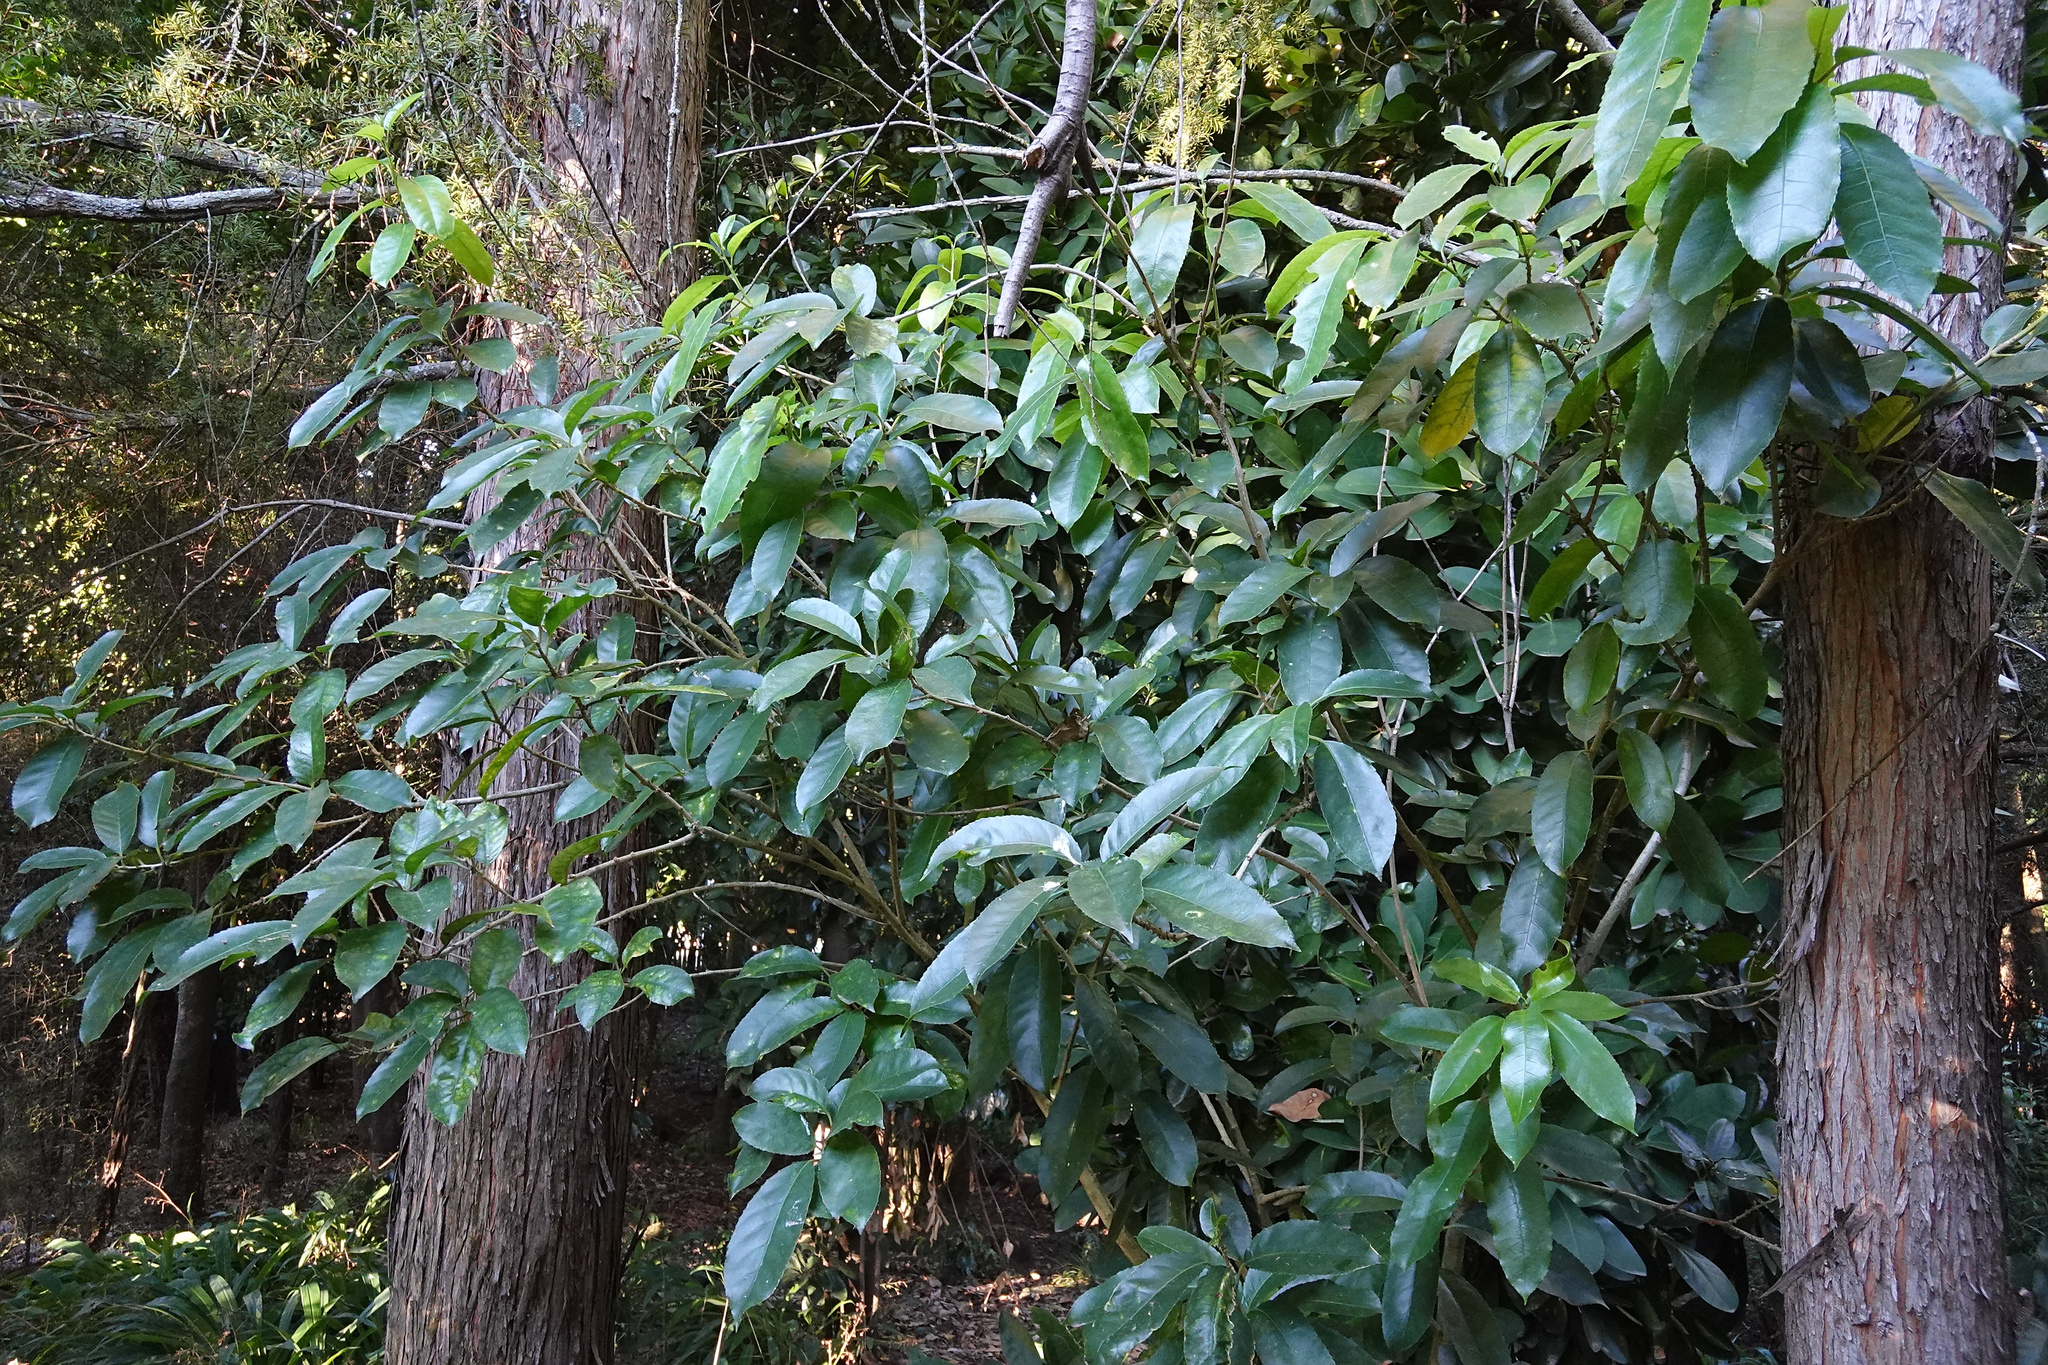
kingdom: Plantae
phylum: Tracheophyta
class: Magnoliopsida
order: Malpighiales
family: Violaceae
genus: Melicytus
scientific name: Melicytus ramiflorus
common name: Mahoe
